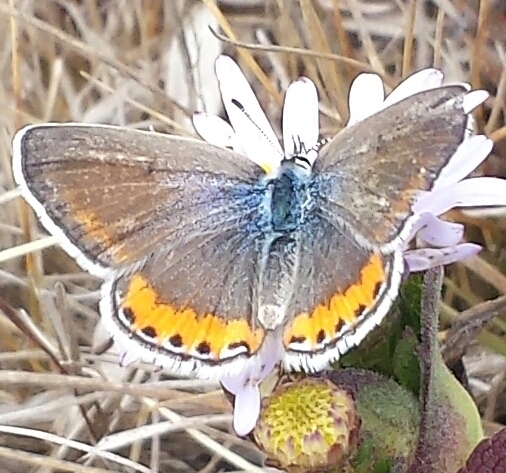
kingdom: Animalia
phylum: Arthropoda
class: Insecta
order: Lepidoptera
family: Lycaenidae
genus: Icaricia
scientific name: Icaricia acmon
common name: Acmon blue
